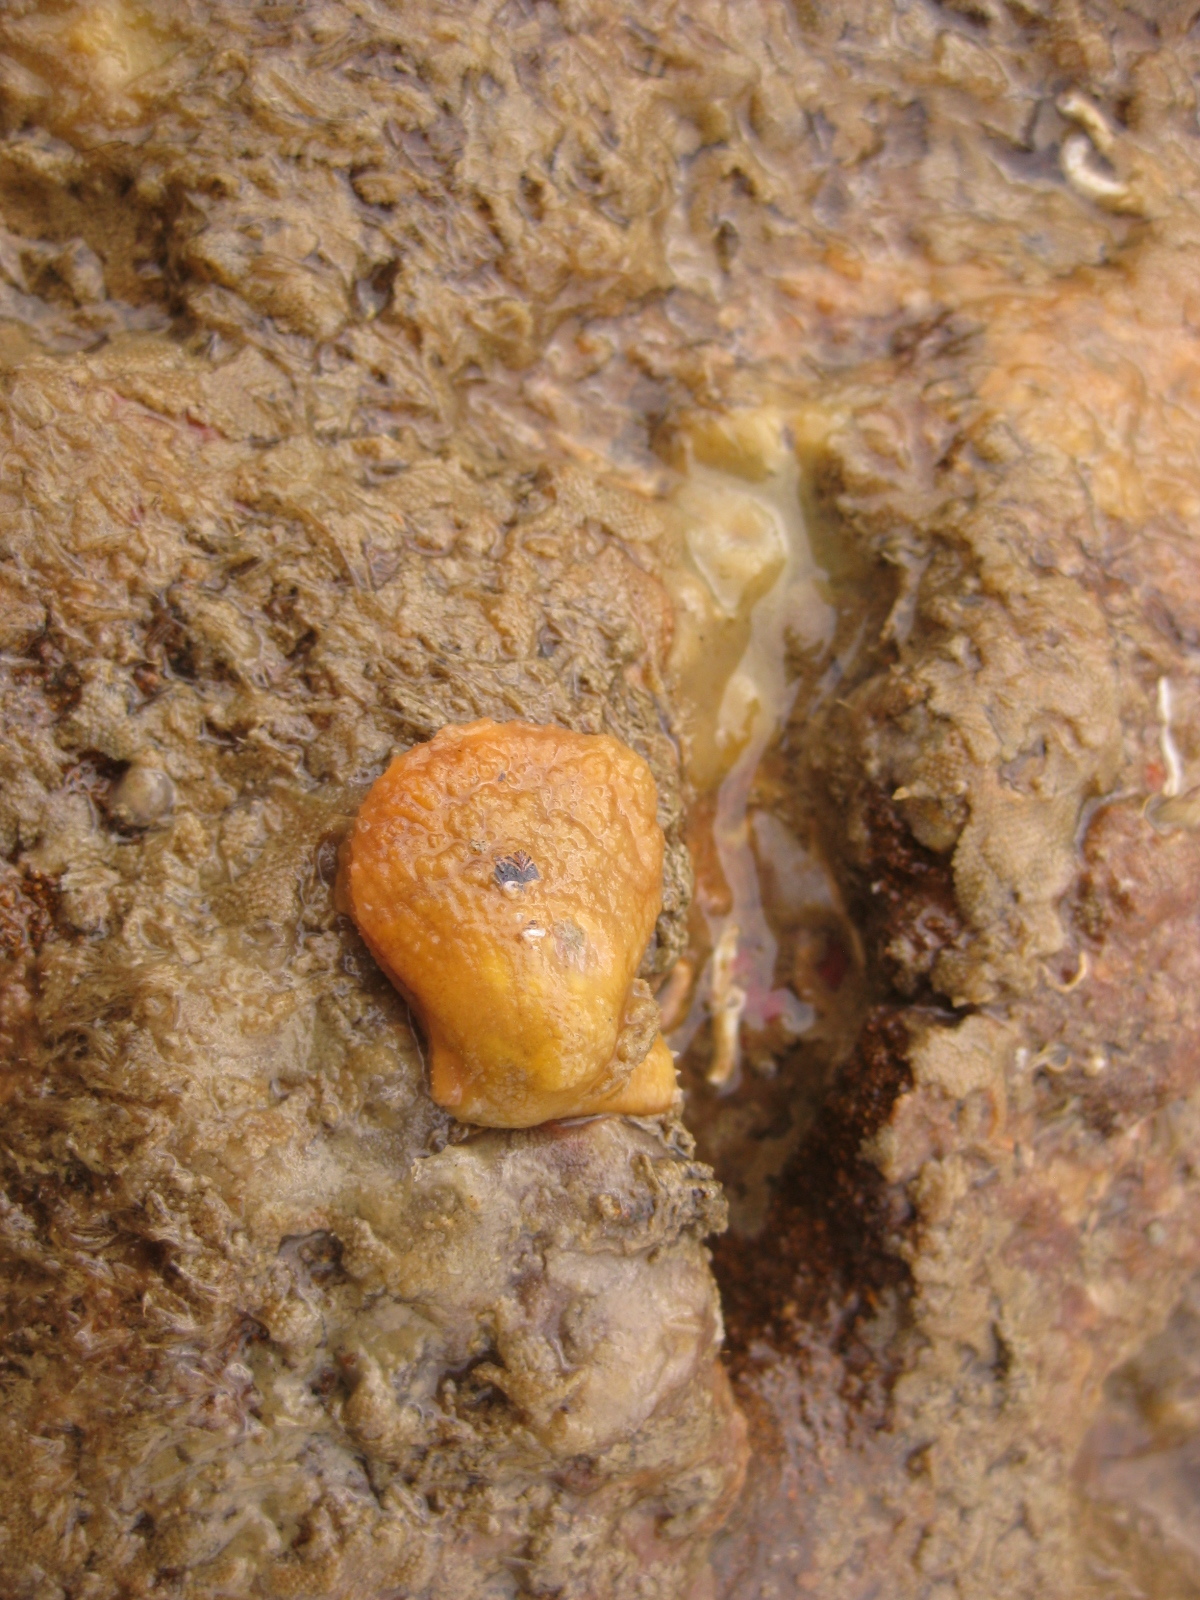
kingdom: Animalia
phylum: Mollusca
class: Bivalvia
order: Pectinida
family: Pectinidae
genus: Talochlamys
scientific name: Talochlamys zelandiae
